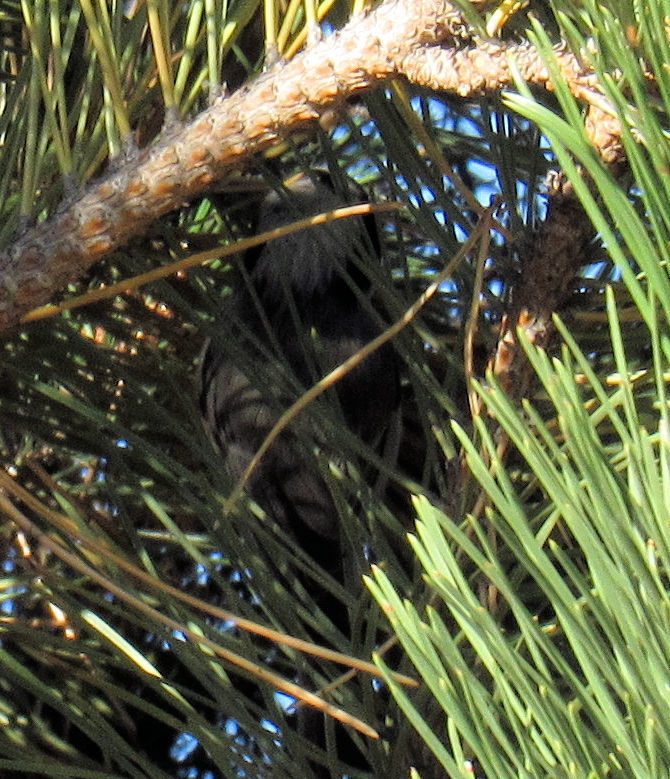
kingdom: Animalia
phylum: Chordata
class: Aves
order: Passeriformes
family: Paridae
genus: Poecile
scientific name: Poecile gambeli
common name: Mountain chickadee
